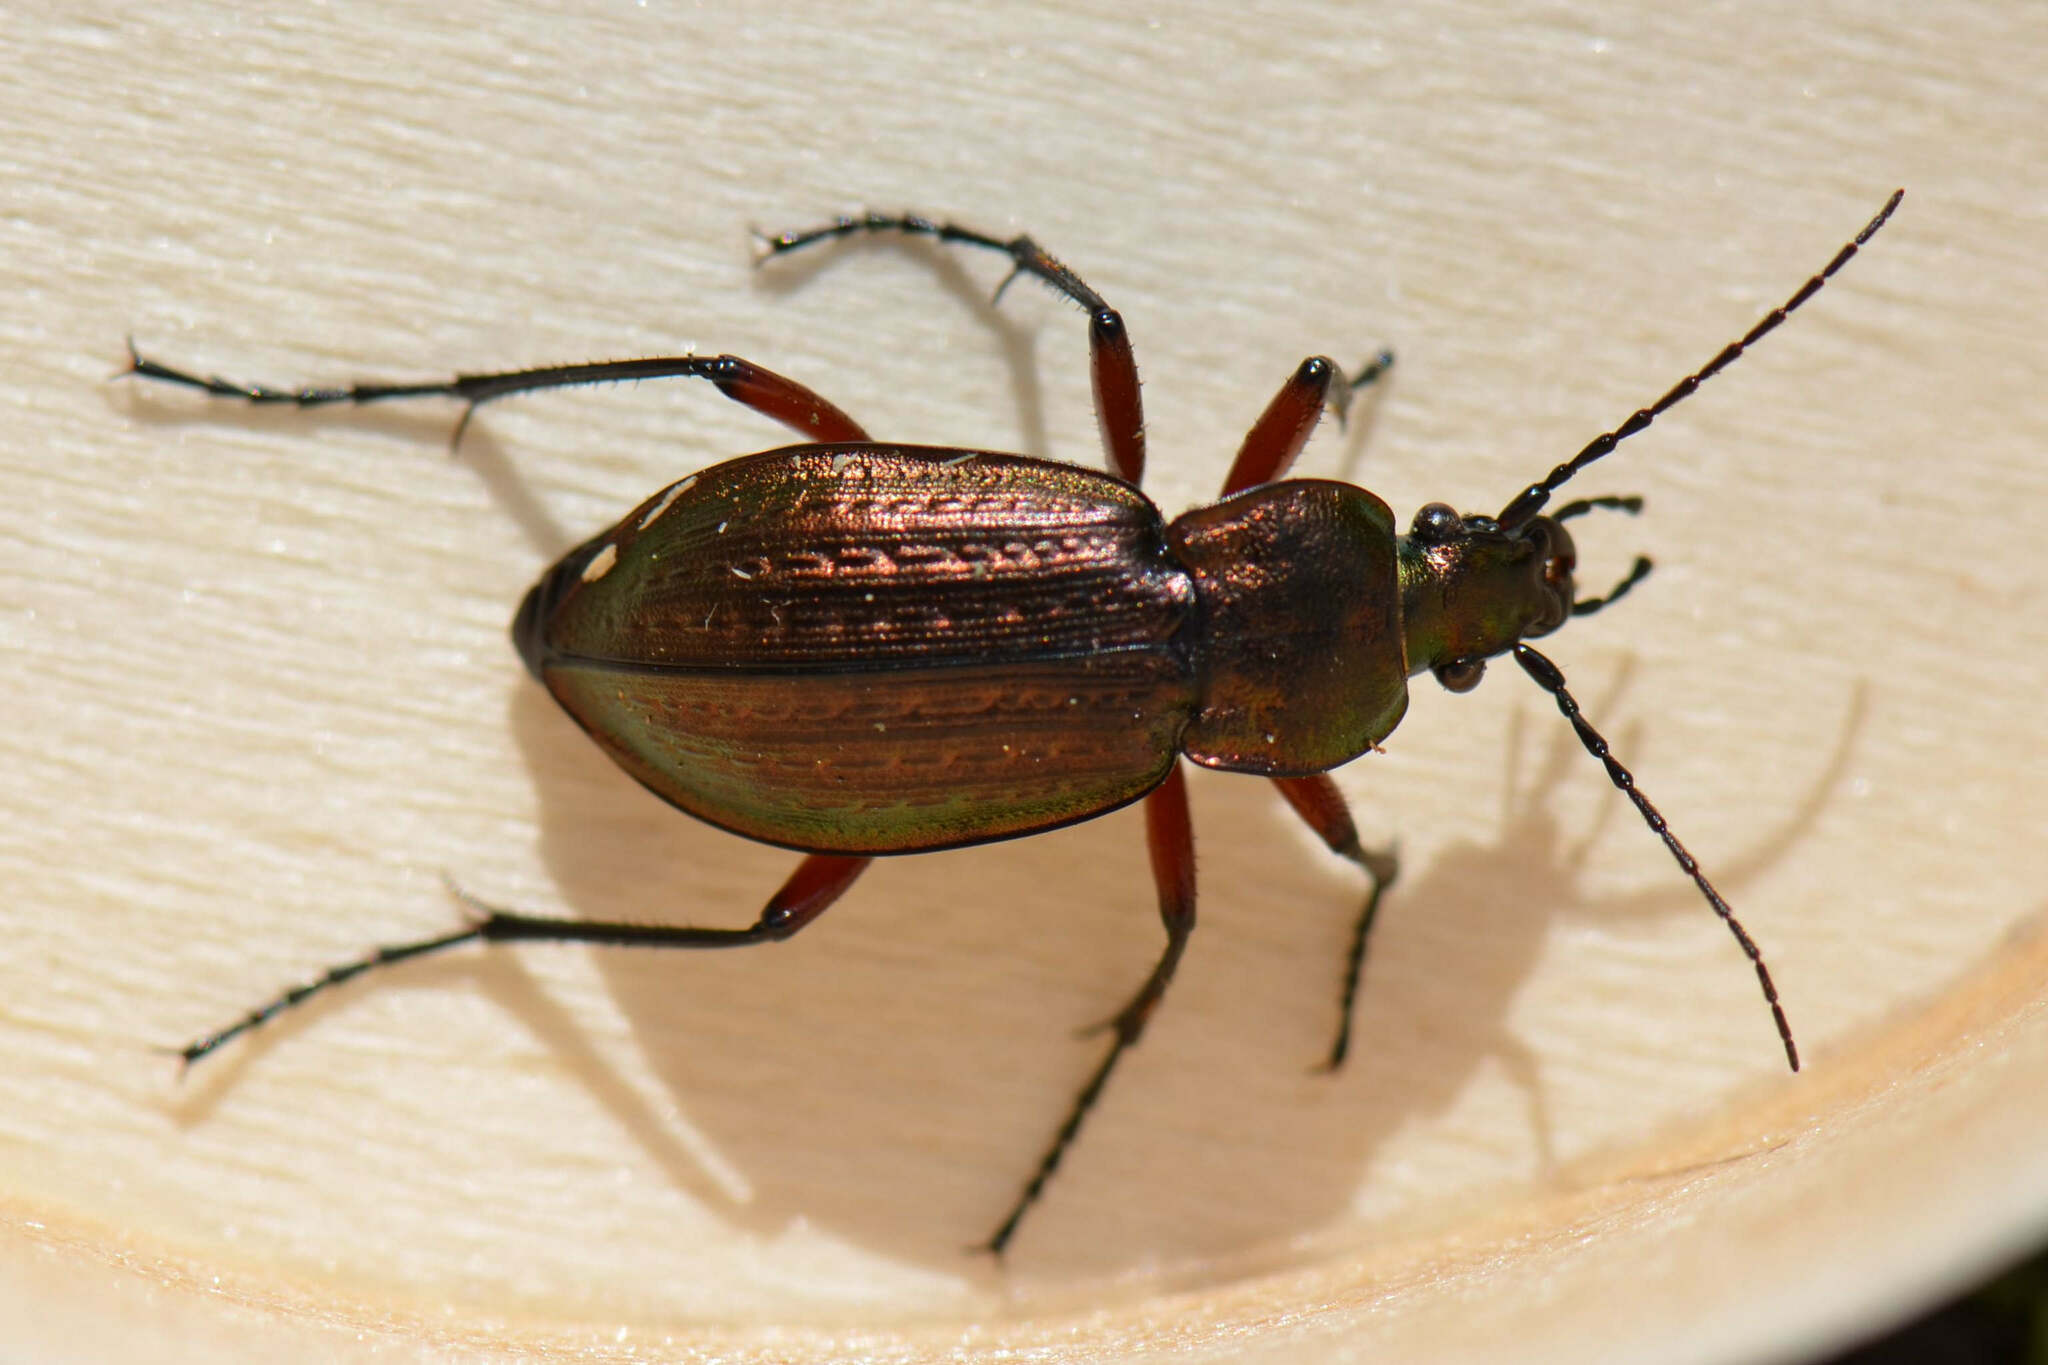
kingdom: Animalia
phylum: Arthropoda
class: Insecta
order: Coleoptera
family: Carabidae
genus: Carabus
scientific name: Carabus arvensis
